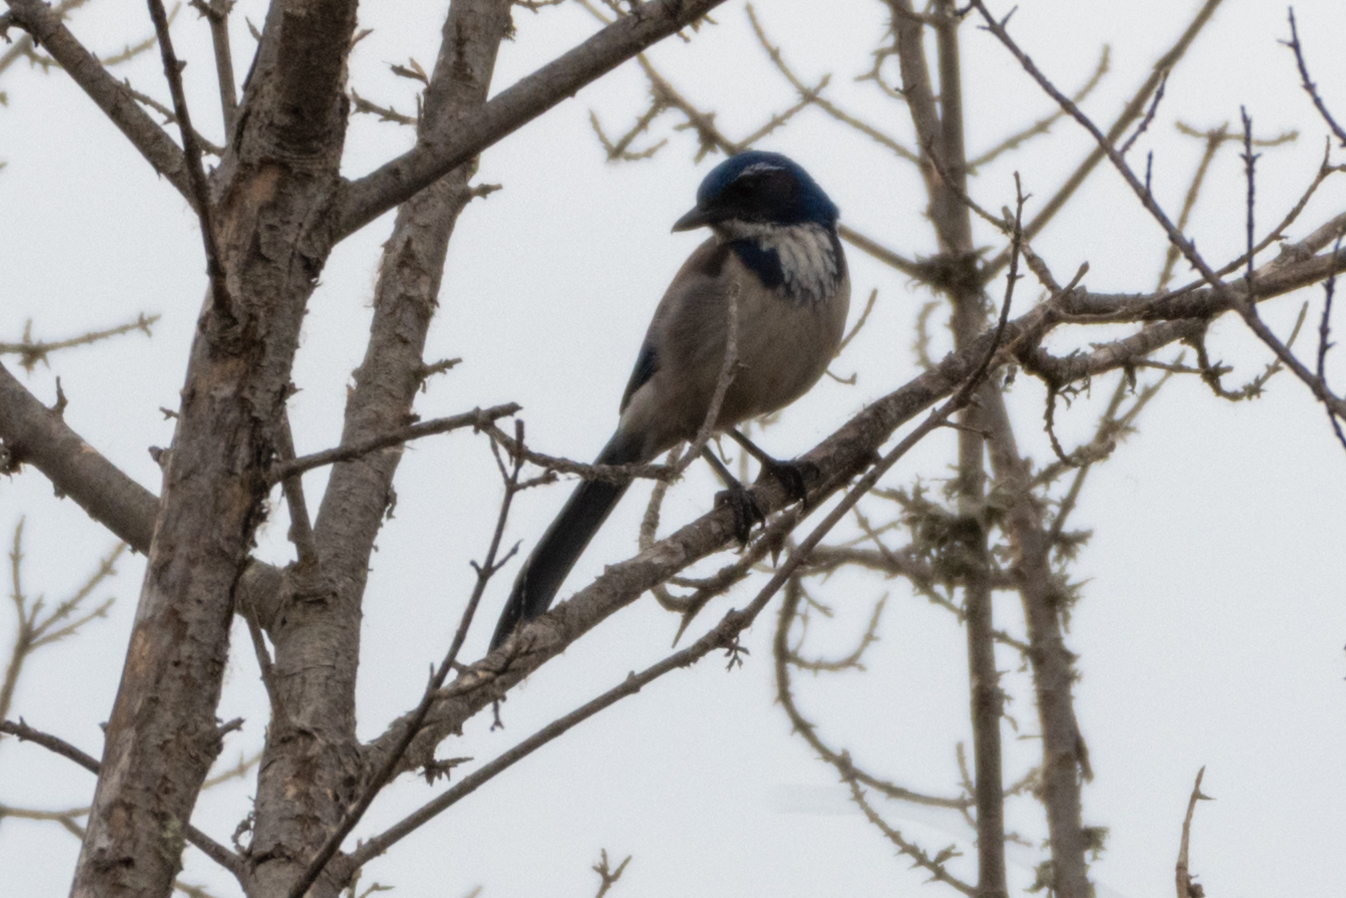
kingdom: Animalia
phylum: Chordata
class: Aves
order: Passeriformes
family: Corvidae
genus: Aphelocoma
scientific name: Aphelocoma californica
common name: California scrub-jay
